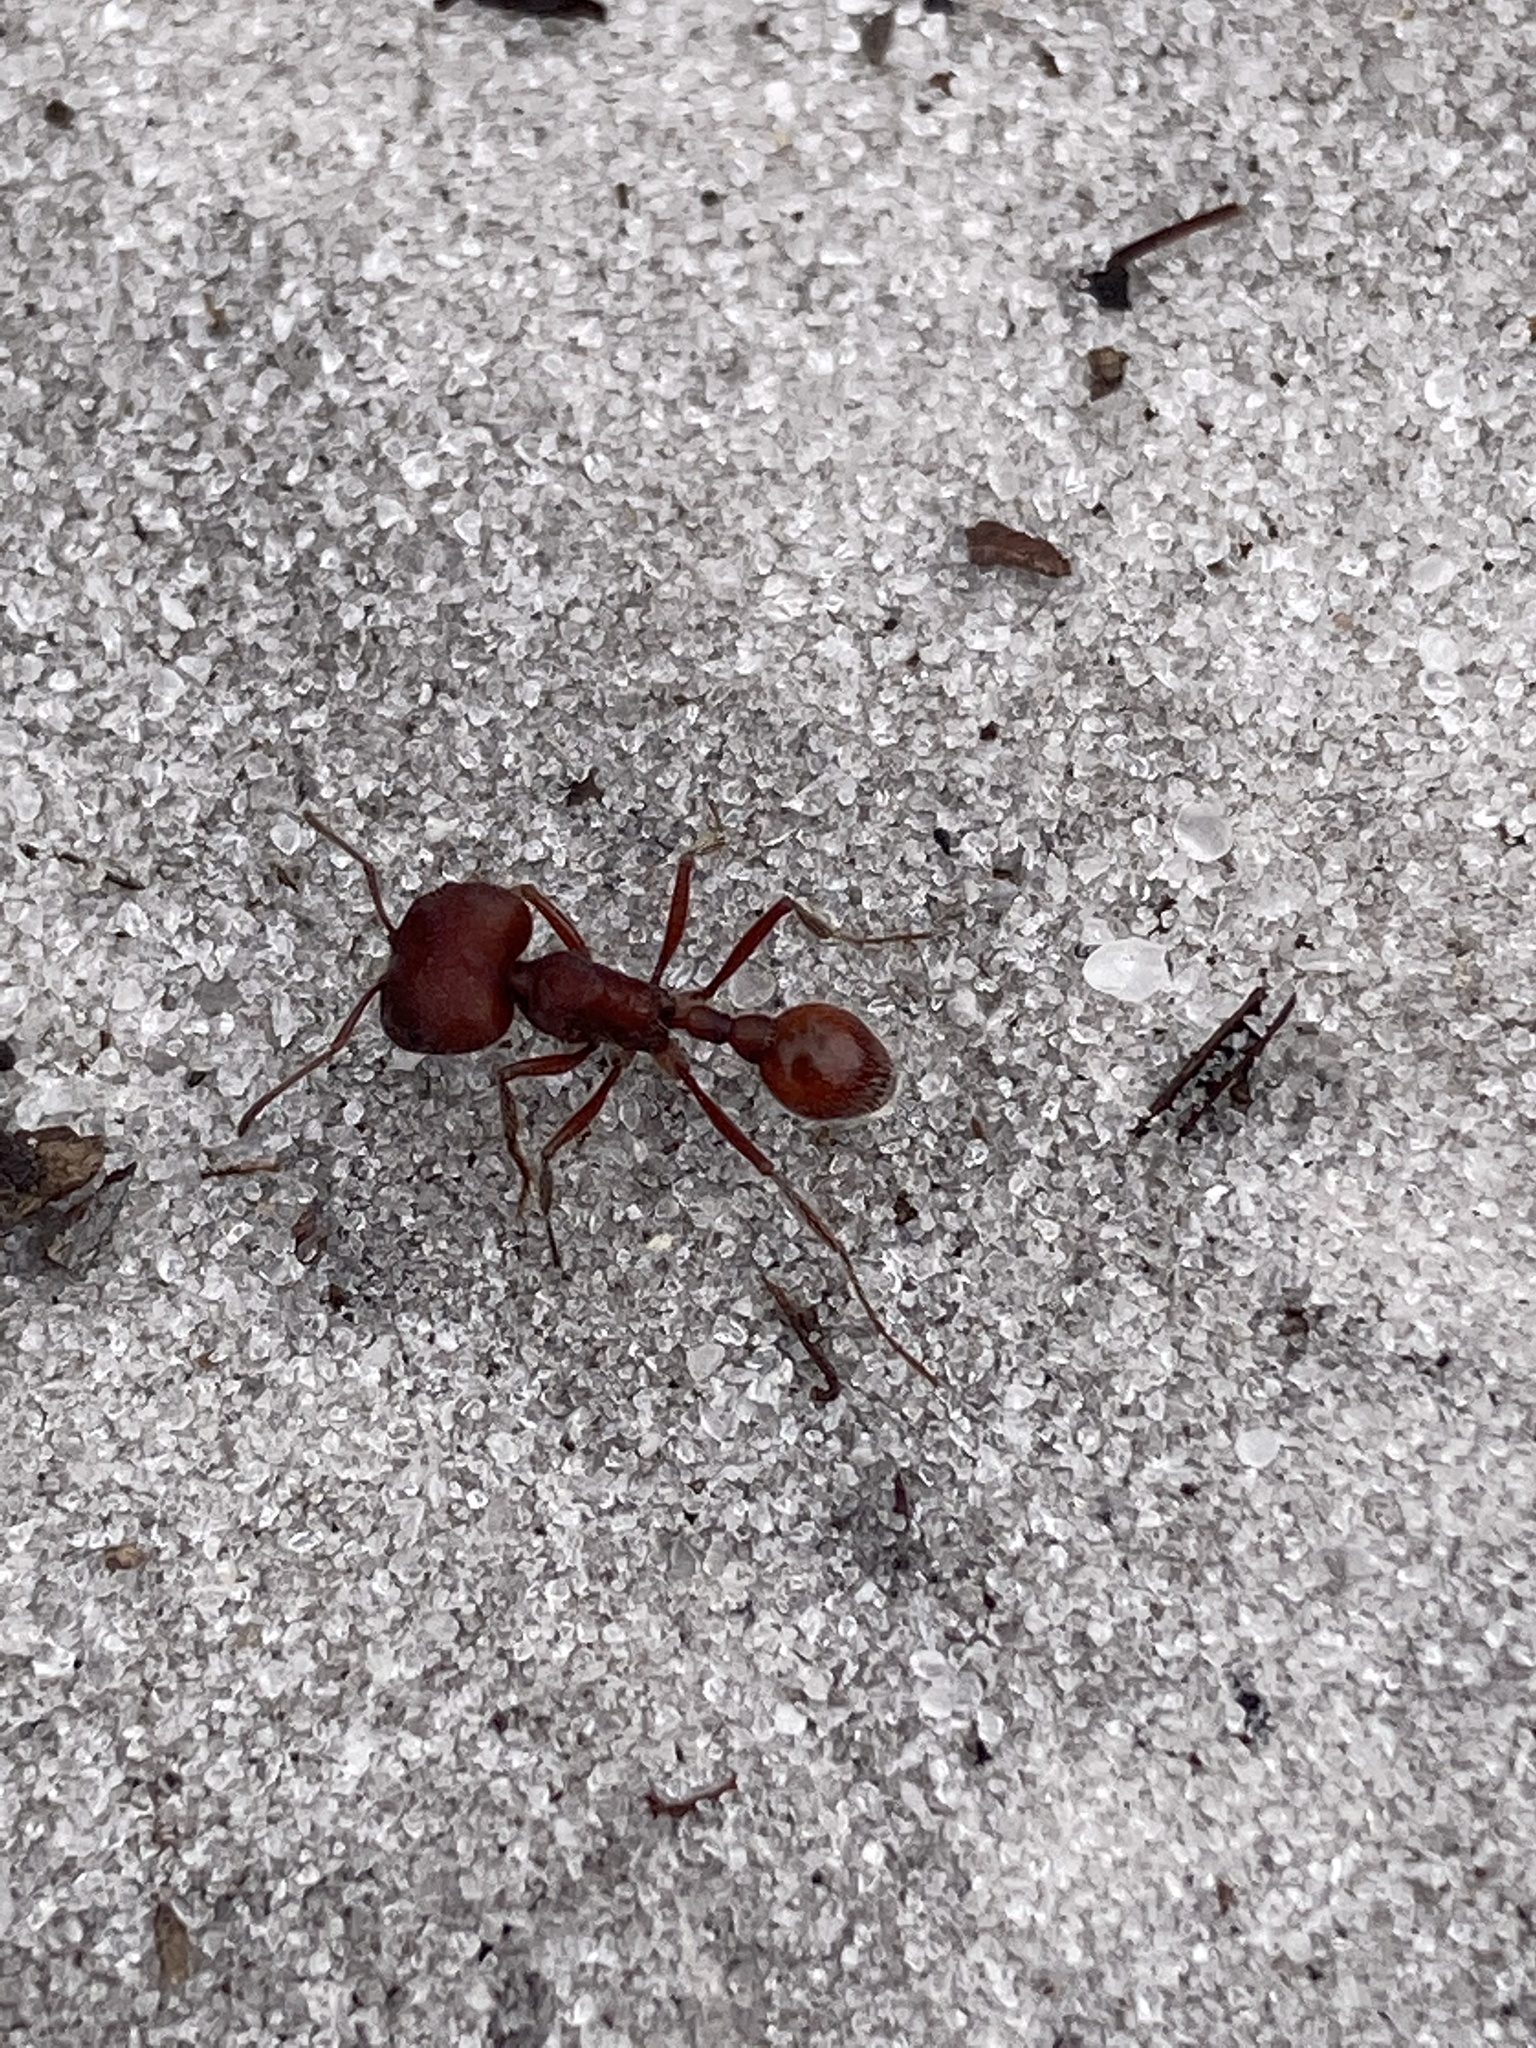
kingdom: Animalia
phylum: Arthropoda
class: Insecta
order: Hymenoptera
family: Formicidae
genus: Pogonomyrmex
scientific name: Pogonomyrmex badius
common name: Florida harvester ant
